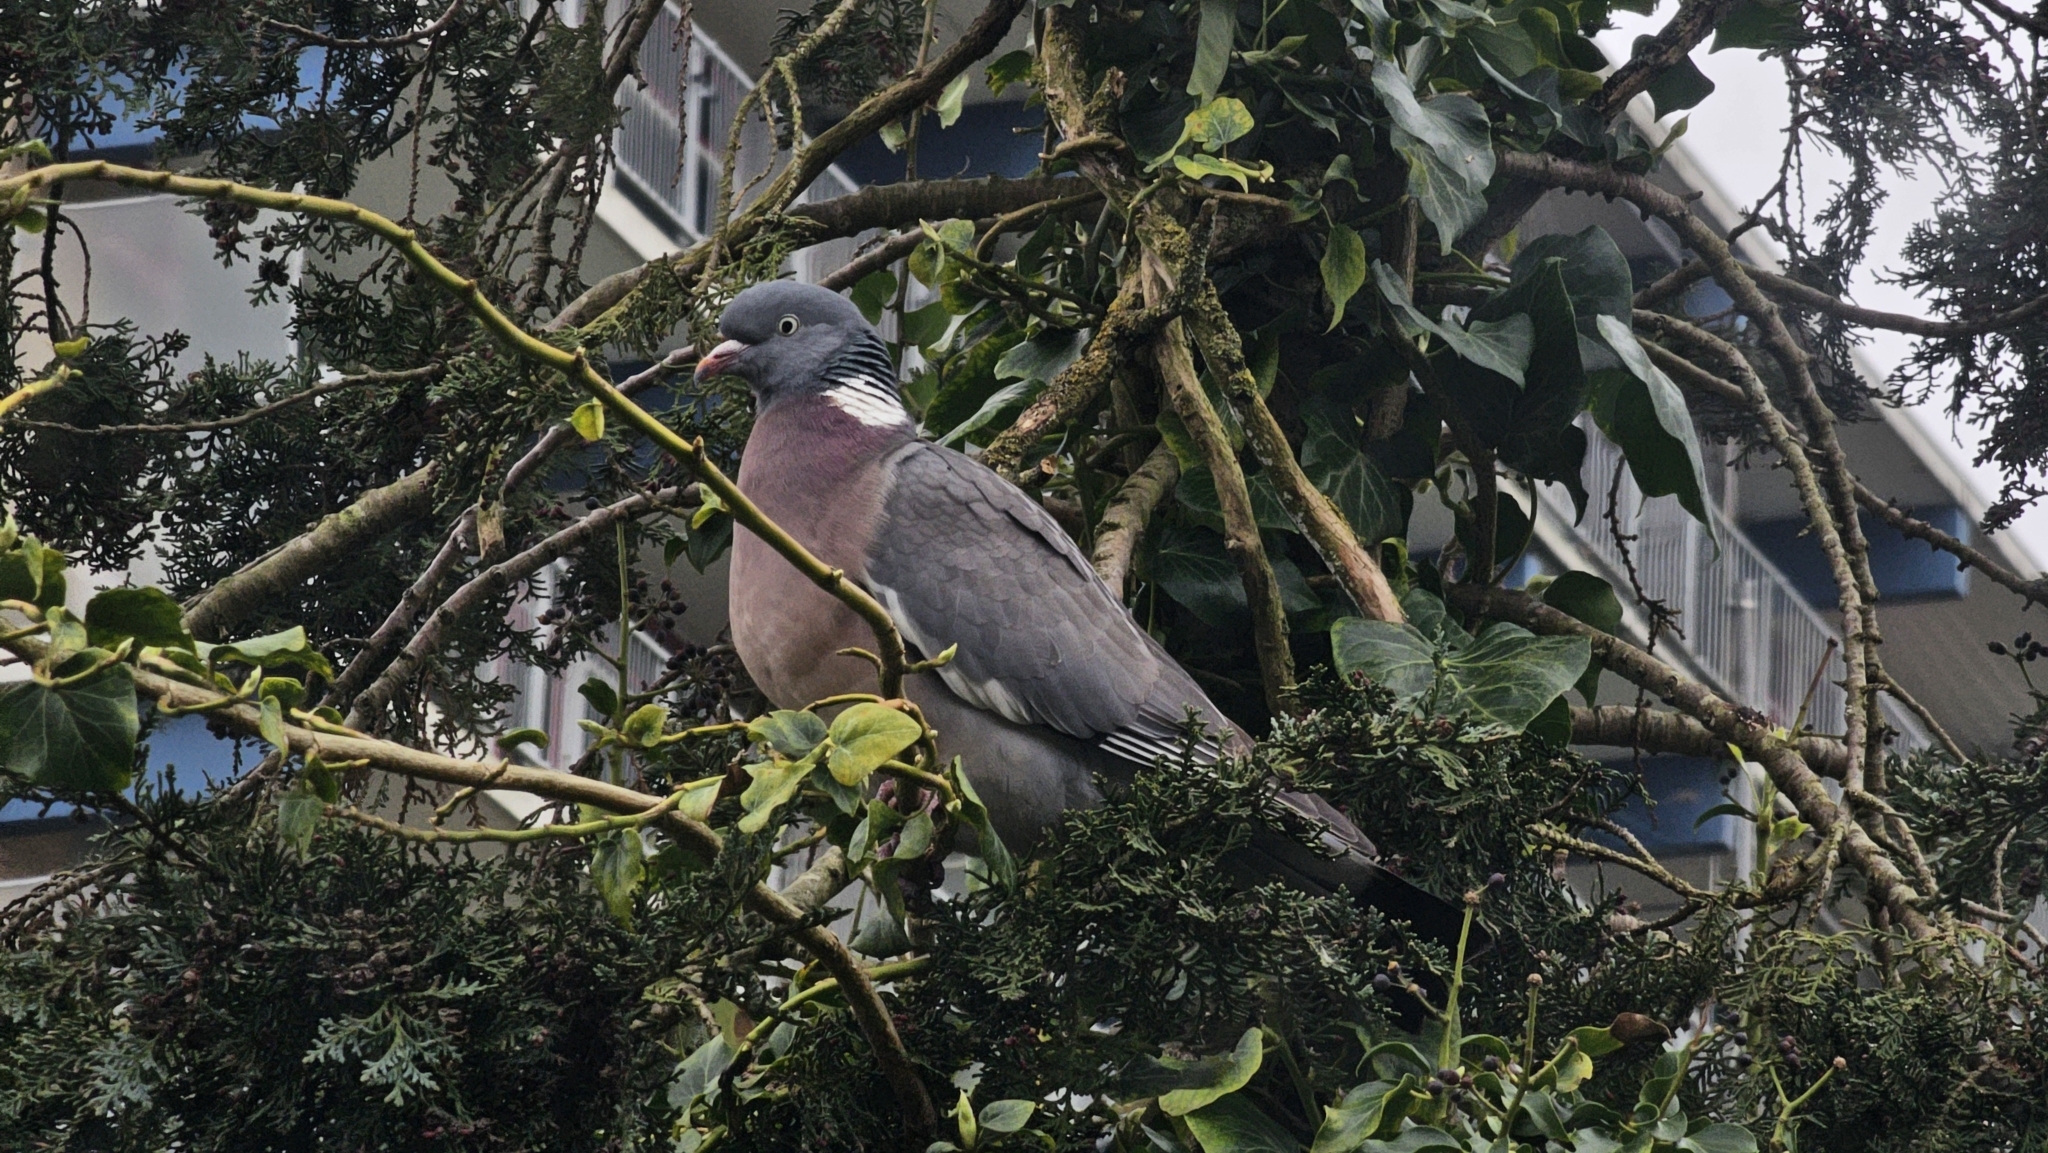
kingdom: Animalia
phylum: Chordata
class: Aves
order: Columbiformes
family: Columbidae
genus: Columba
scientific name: Columba palumbus
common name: Common wood pigeon
